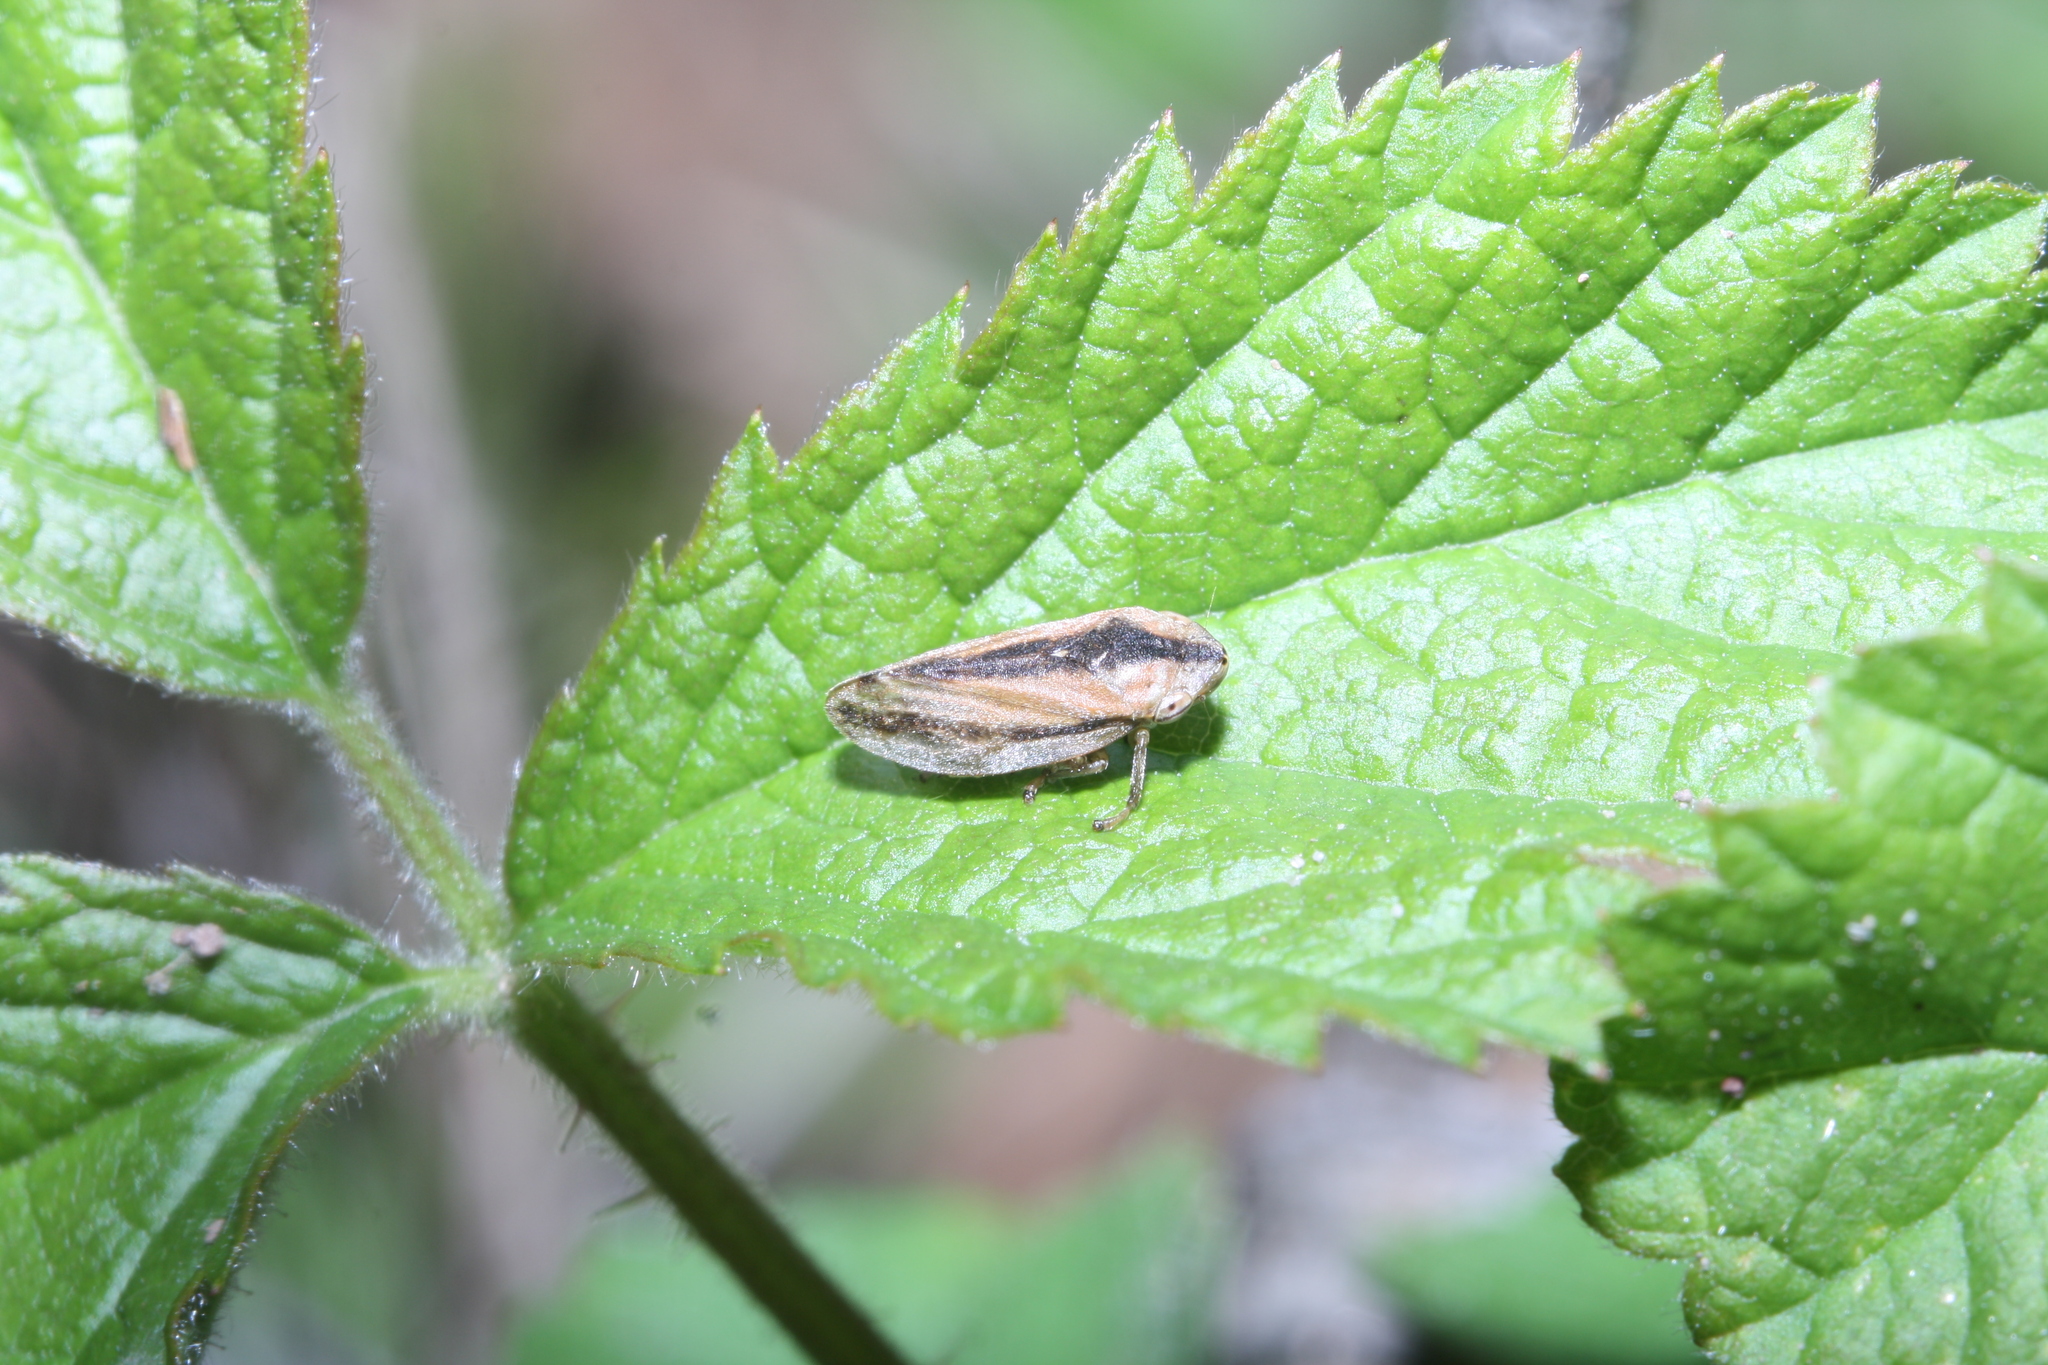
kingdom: Animalia
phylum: Arthropoda
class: Insecta
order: Hemiptera
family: Aphrophoridae
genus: Philaenus
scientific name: Philaenus spumarius
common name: Meadow spittlebug
